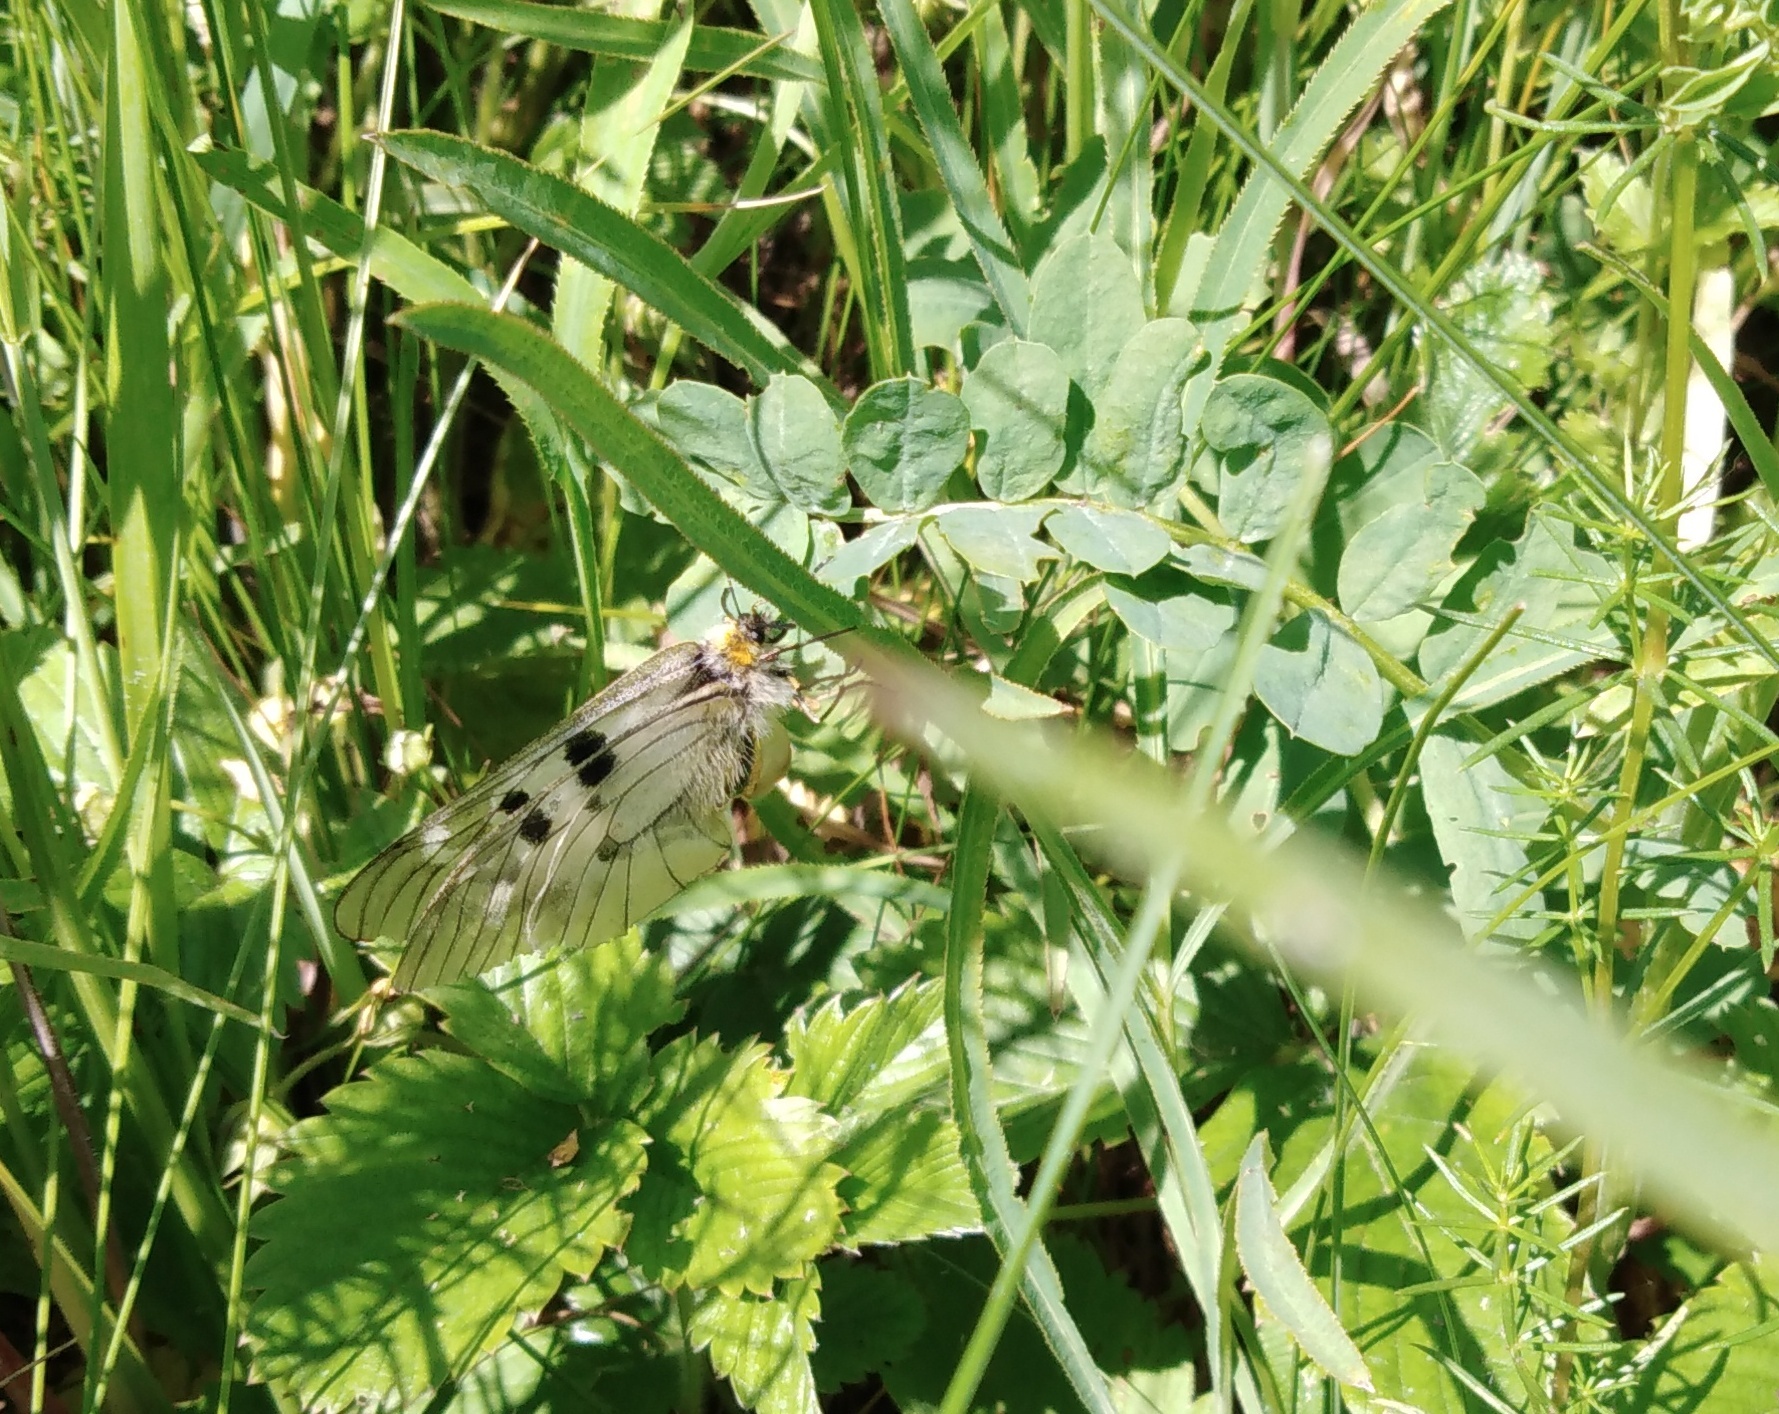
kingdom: Animalia
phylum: Arthropoda
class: Insecta
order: Lepidoptera
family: Papilionidae
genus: Parnassius
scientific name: Parnassius mnemosyne
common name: Clouded apollo
